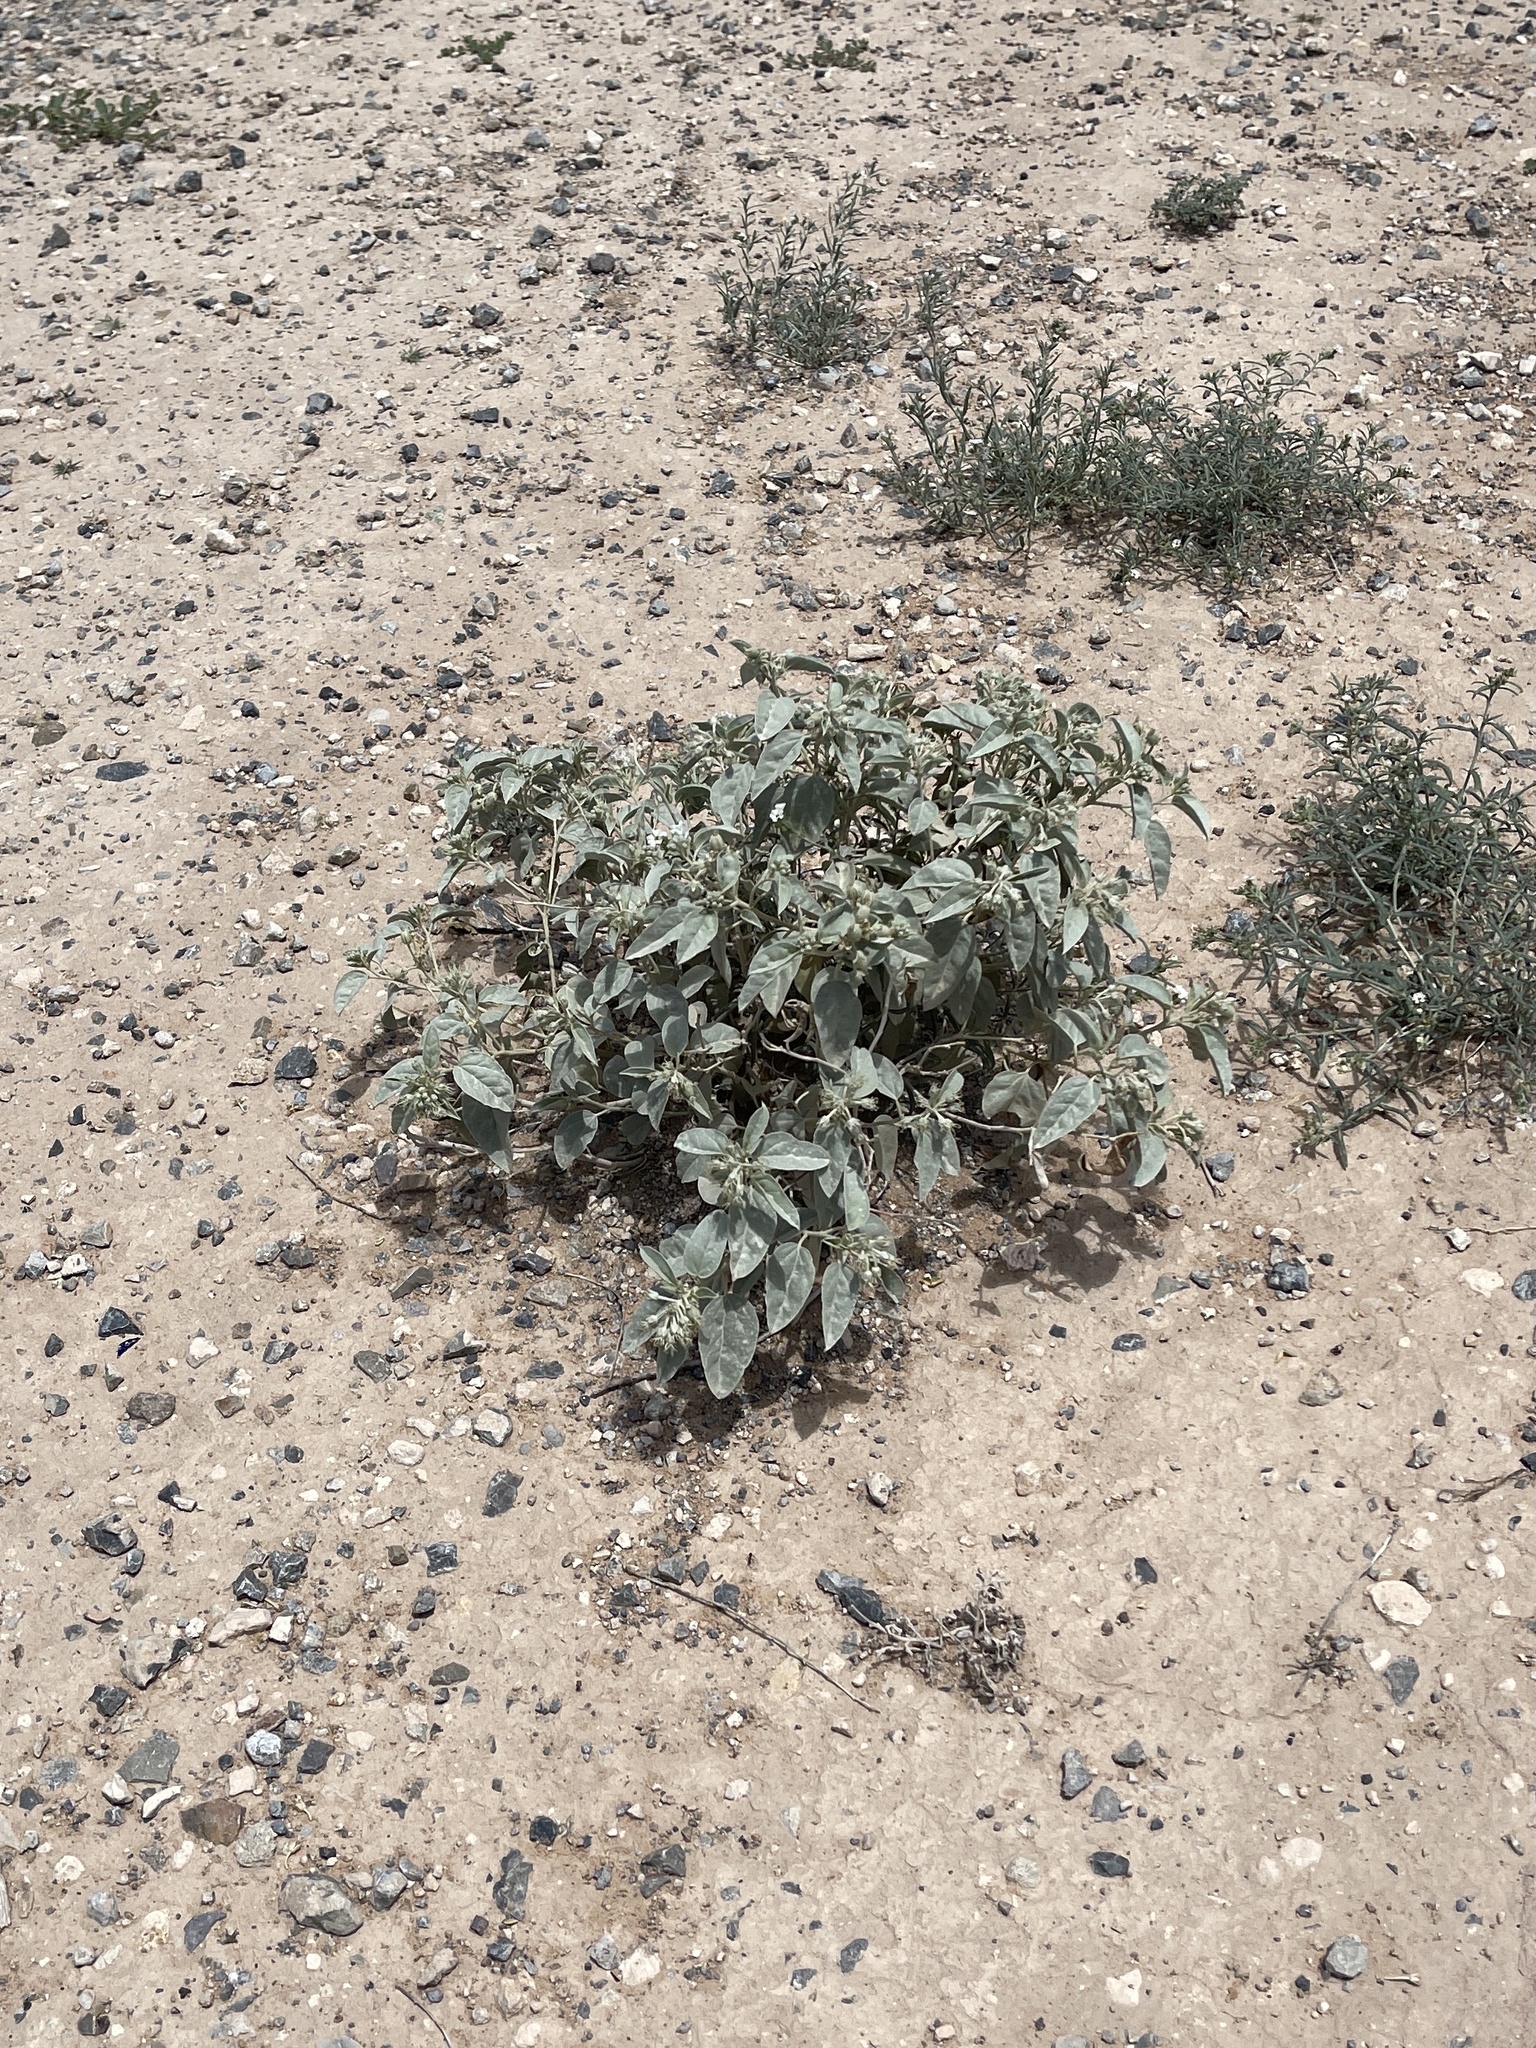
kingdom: Plantae
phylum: Tracheophyta
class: Magnoliopsida
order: Malpighiales
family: Euphorbiaceae
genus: Croton
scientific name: Croton pottsii
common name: Leatherweed
